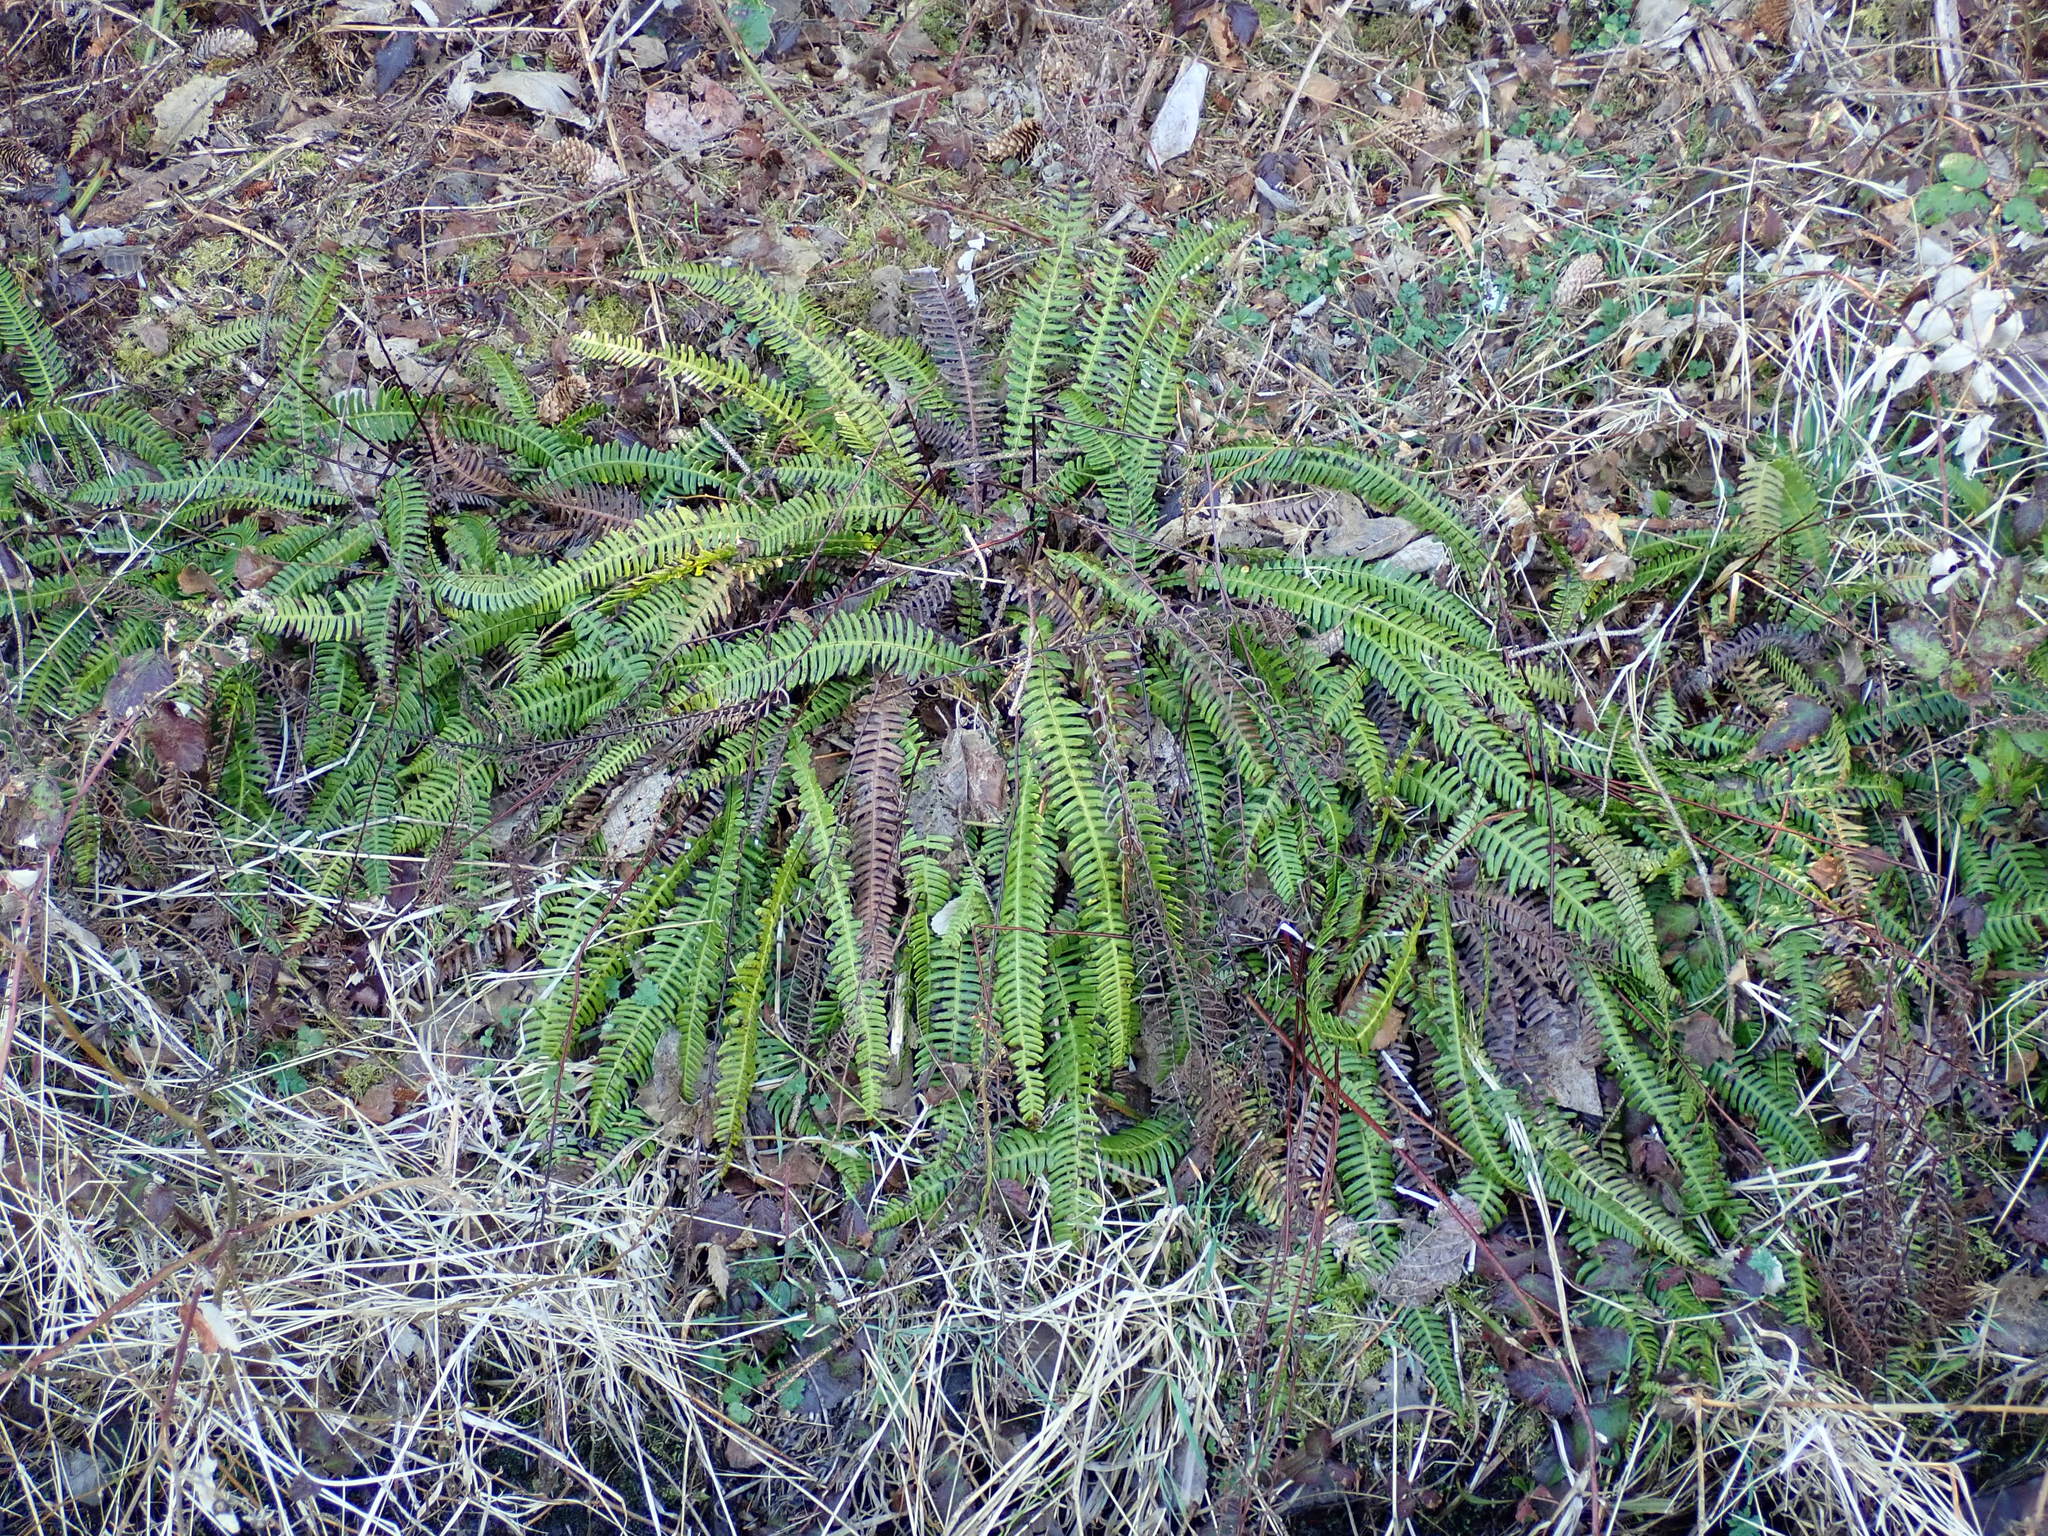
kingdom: Plantae
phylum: Tracheophyta
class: Polypodiopsida
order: Polypodiales
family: Blechnaceae
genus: Struthiopteris
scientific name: Struthiopteris spicant
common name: Deer fern
